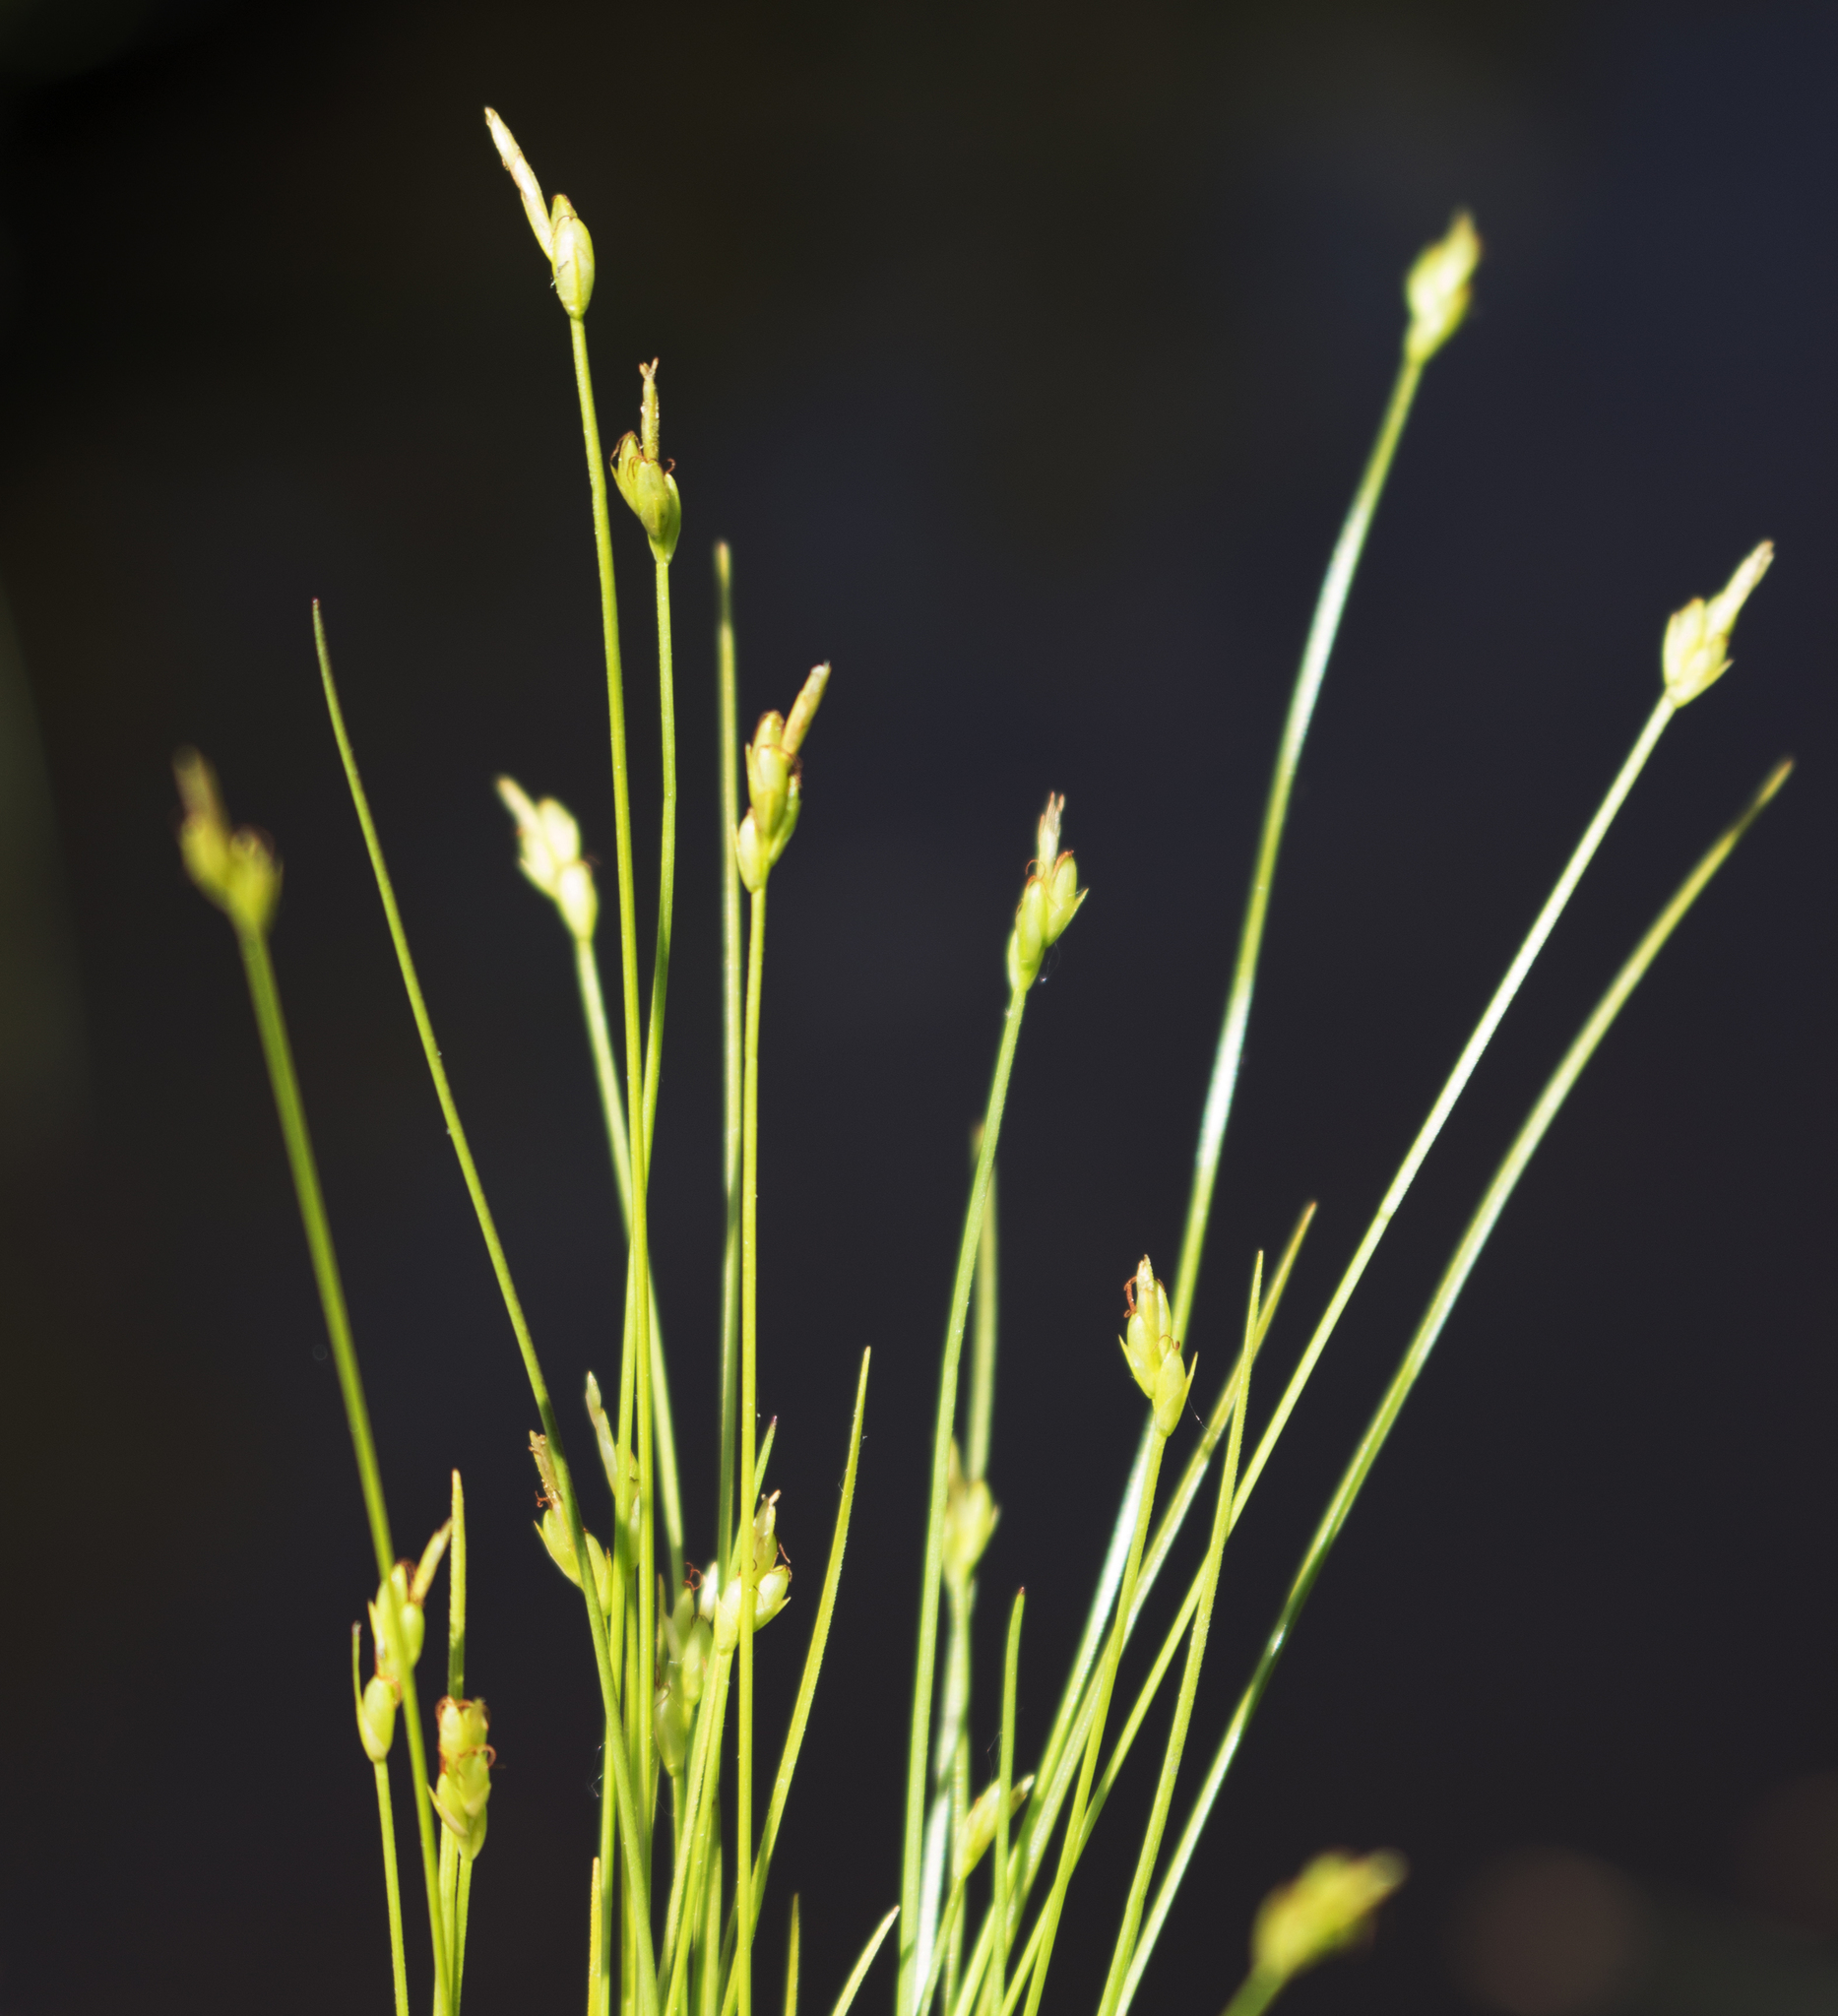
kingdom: Plantae
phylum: Tracheophyta
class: Liliopsida
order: Poales
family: Cyperaceae
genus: Carex
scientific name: Carex leptalea
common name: Bristly-stalked sedge
